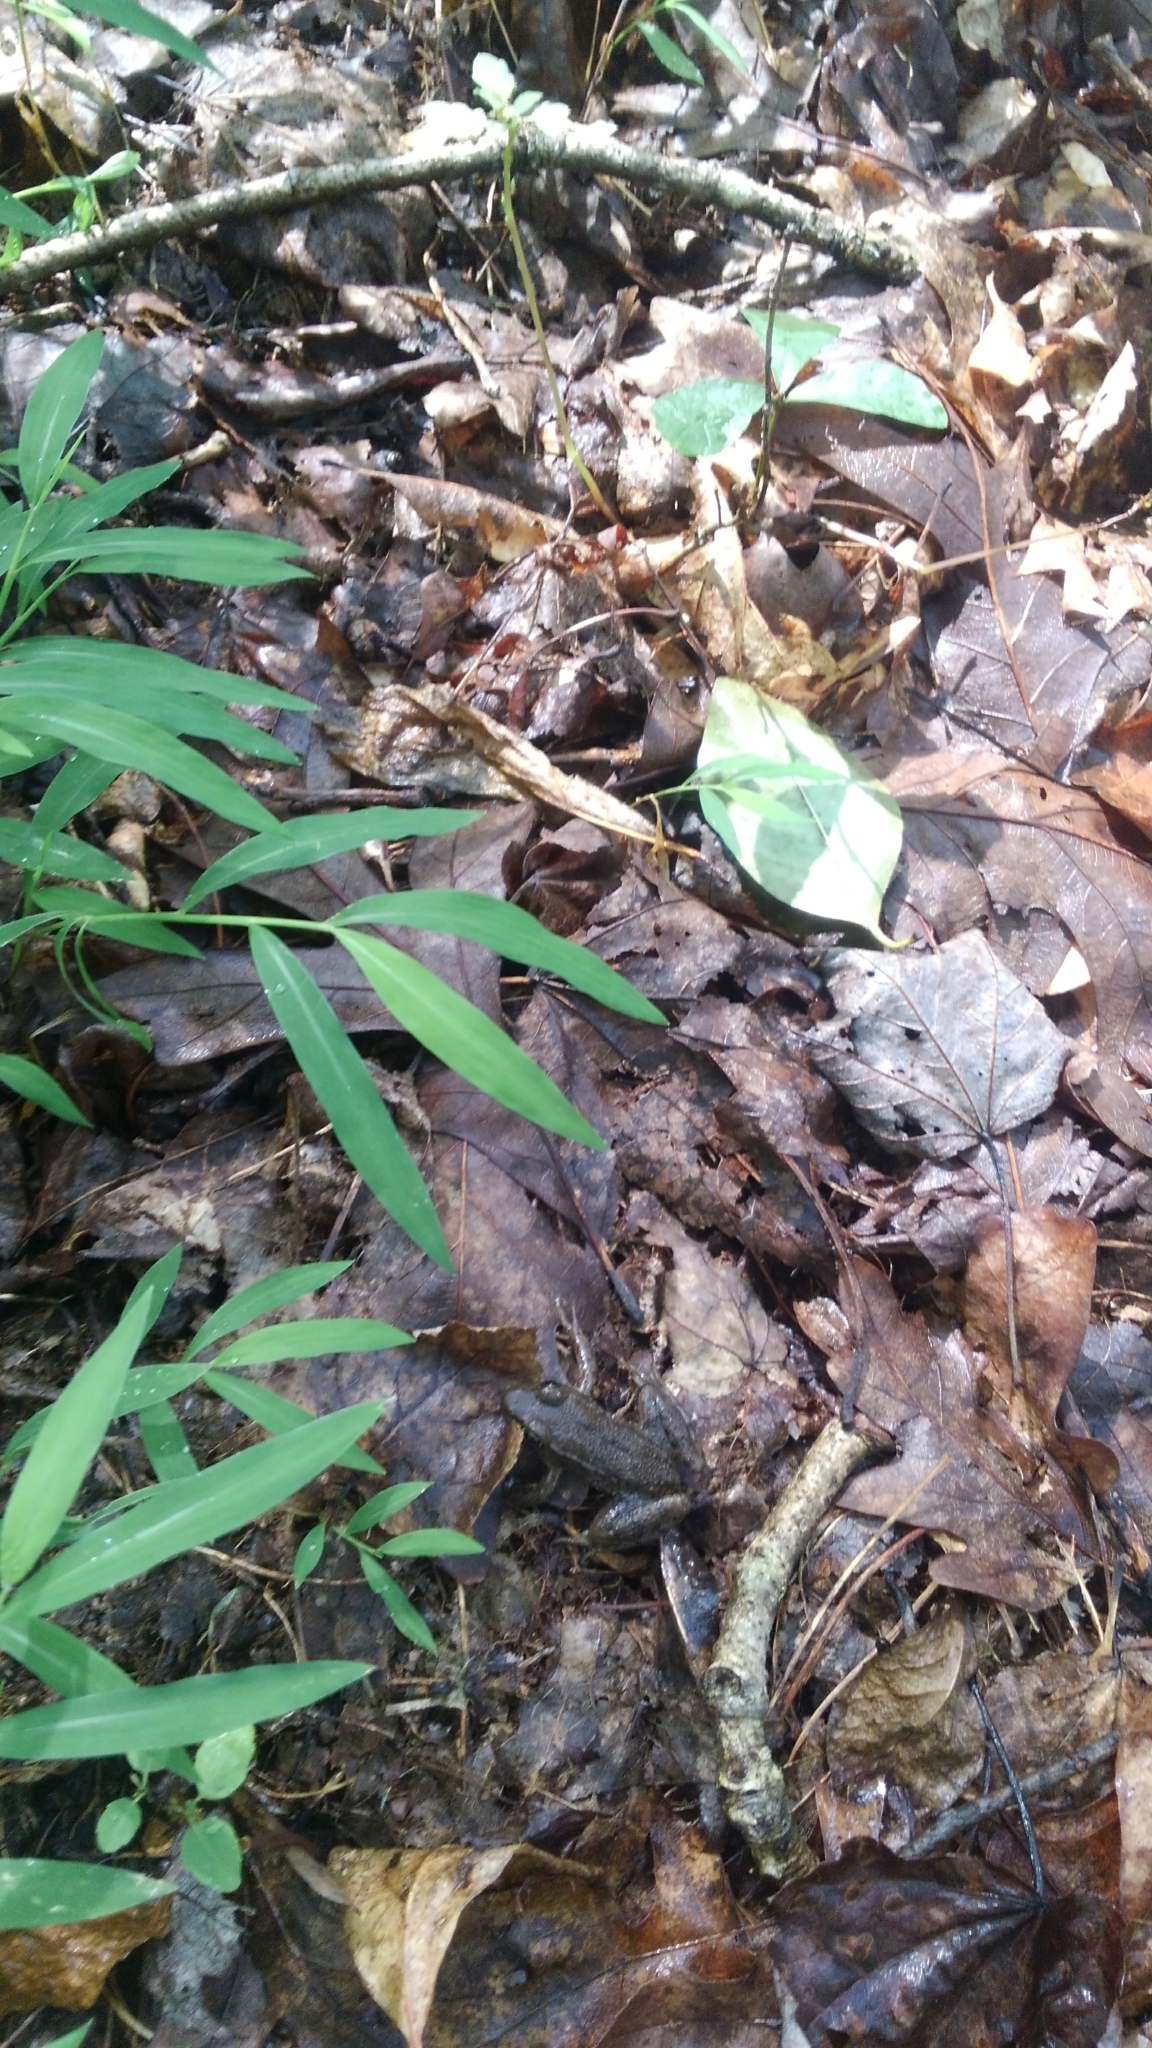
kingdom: Animalia
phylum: Chordata
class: Amphibia
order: Anura
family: Ranidae
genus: Lithobates
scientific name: Lithobates clamitans
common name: Green frog
